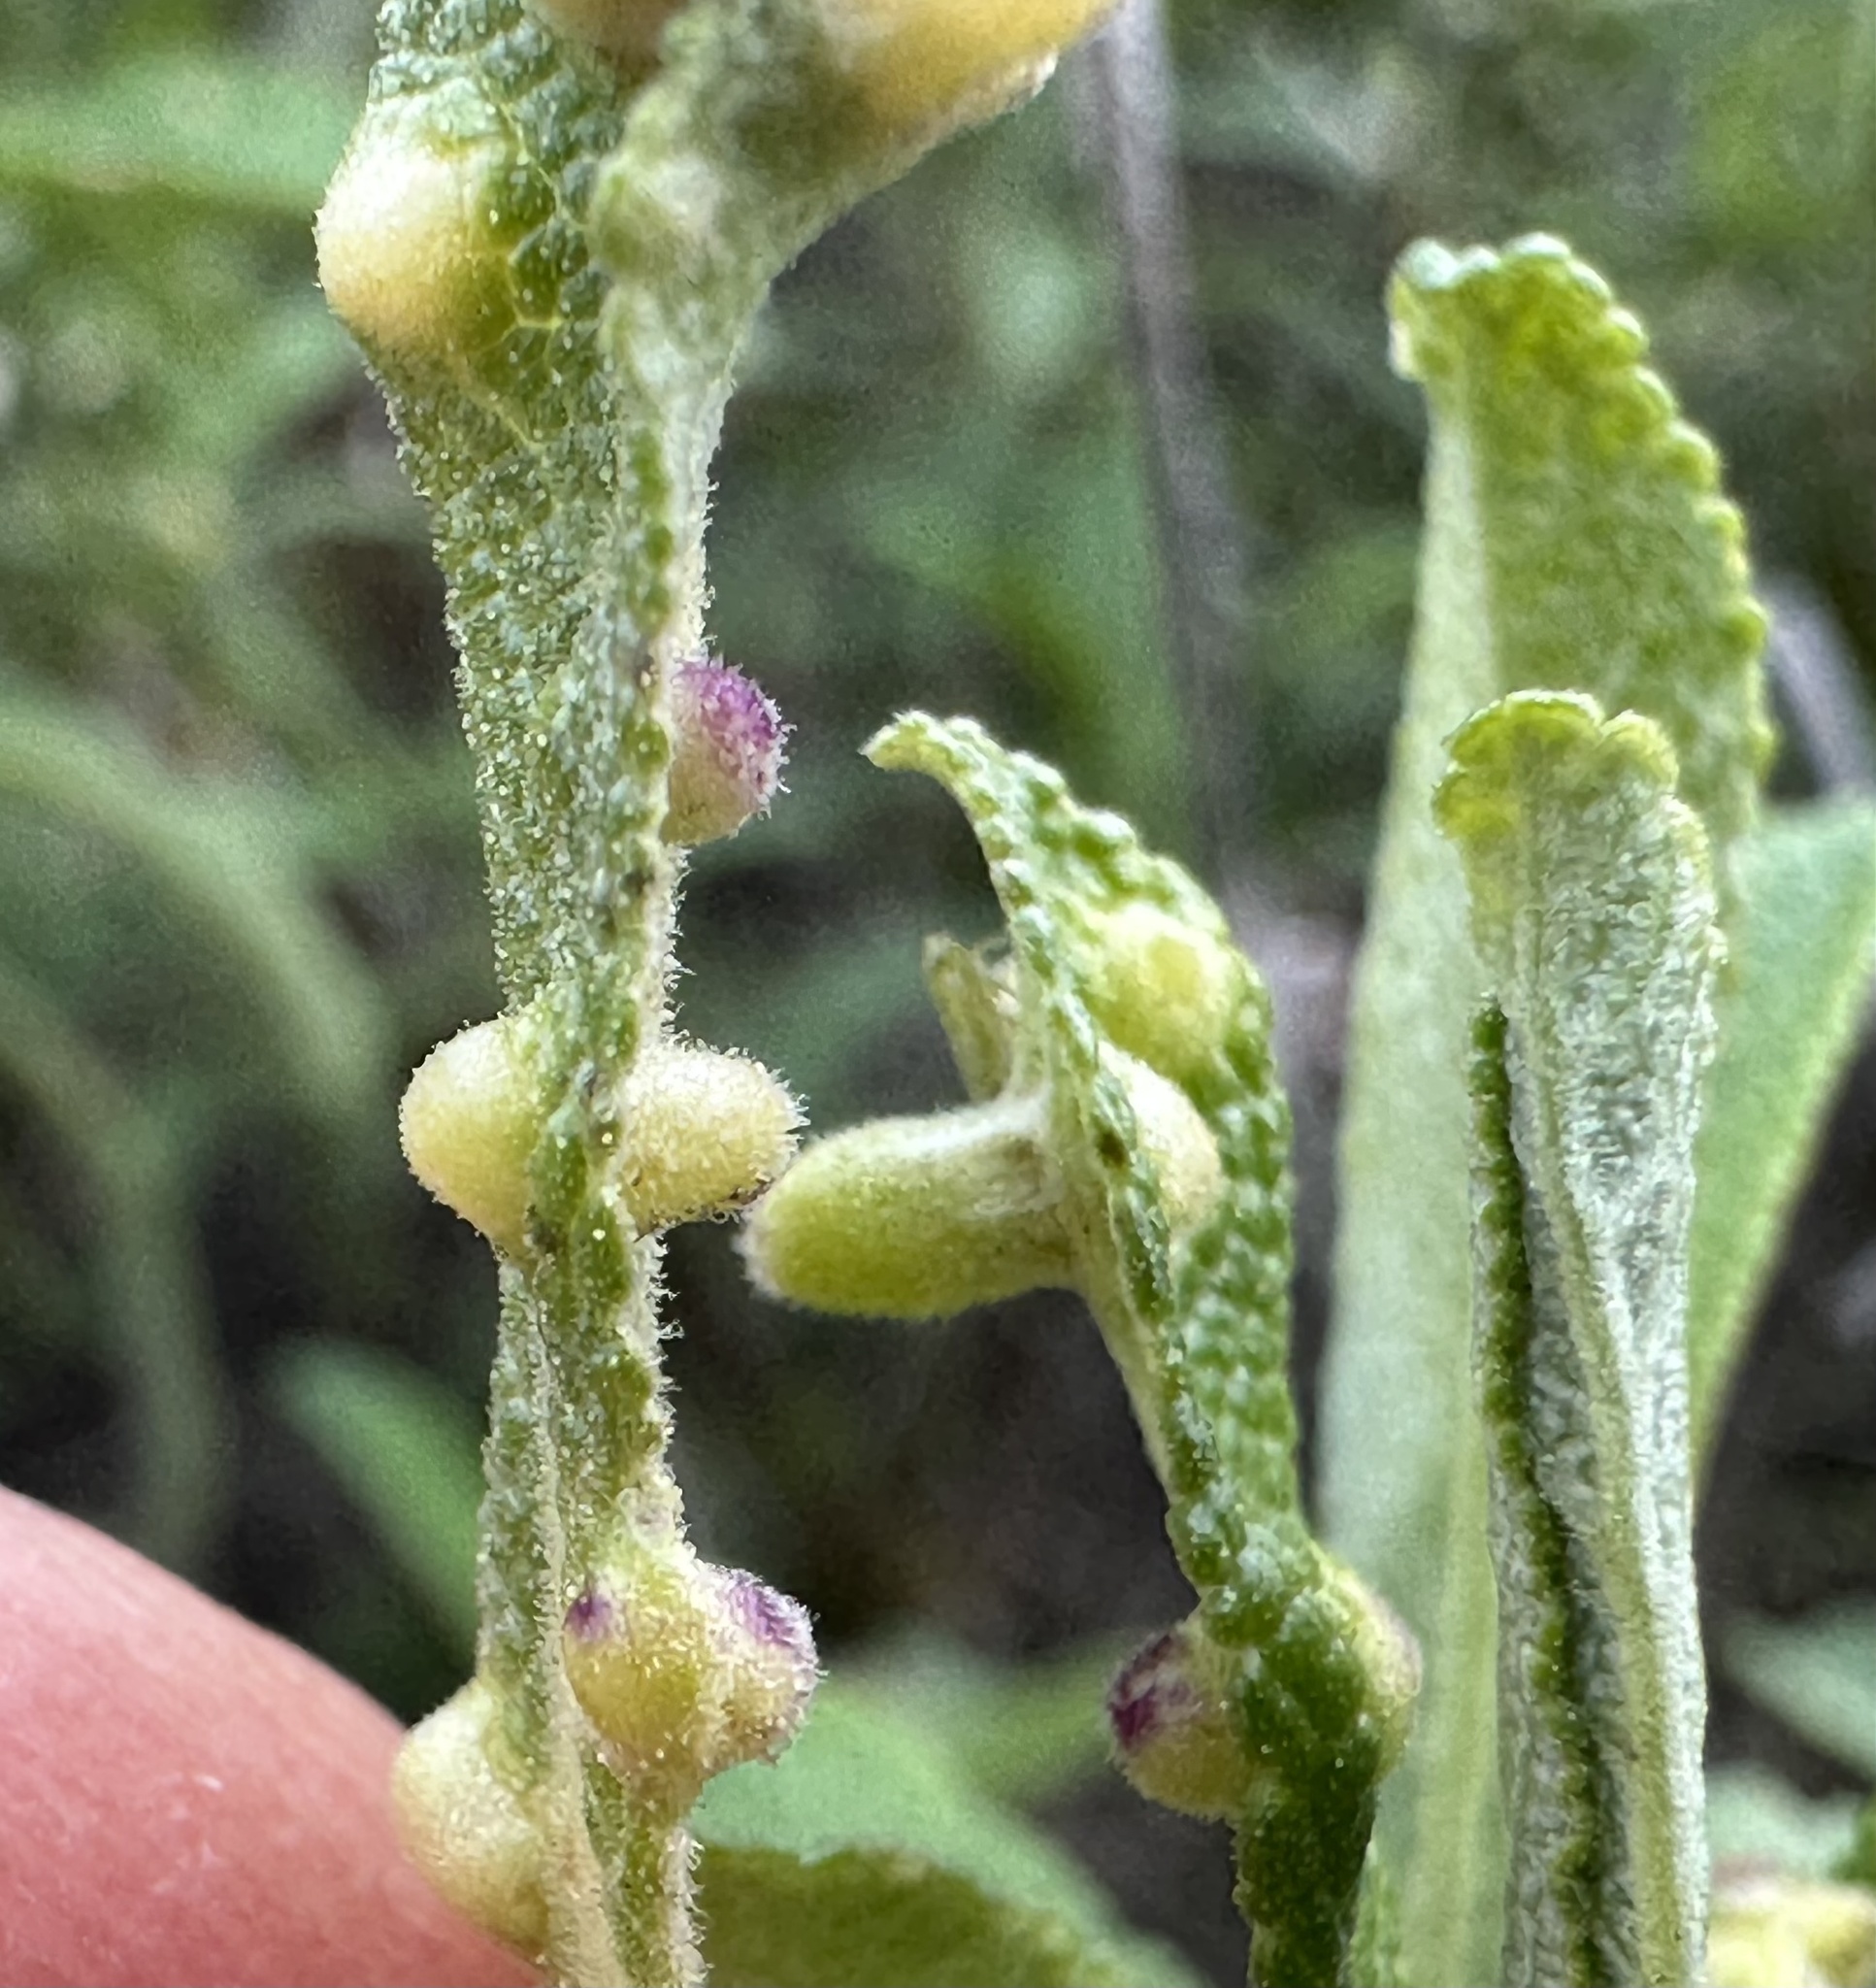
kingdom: Animalia
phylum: Arthropoda
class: Insecta
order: Diptera
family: Cecidomyiidae
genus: Rhopalomyia
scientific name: Rhopalomyia audibertiae
